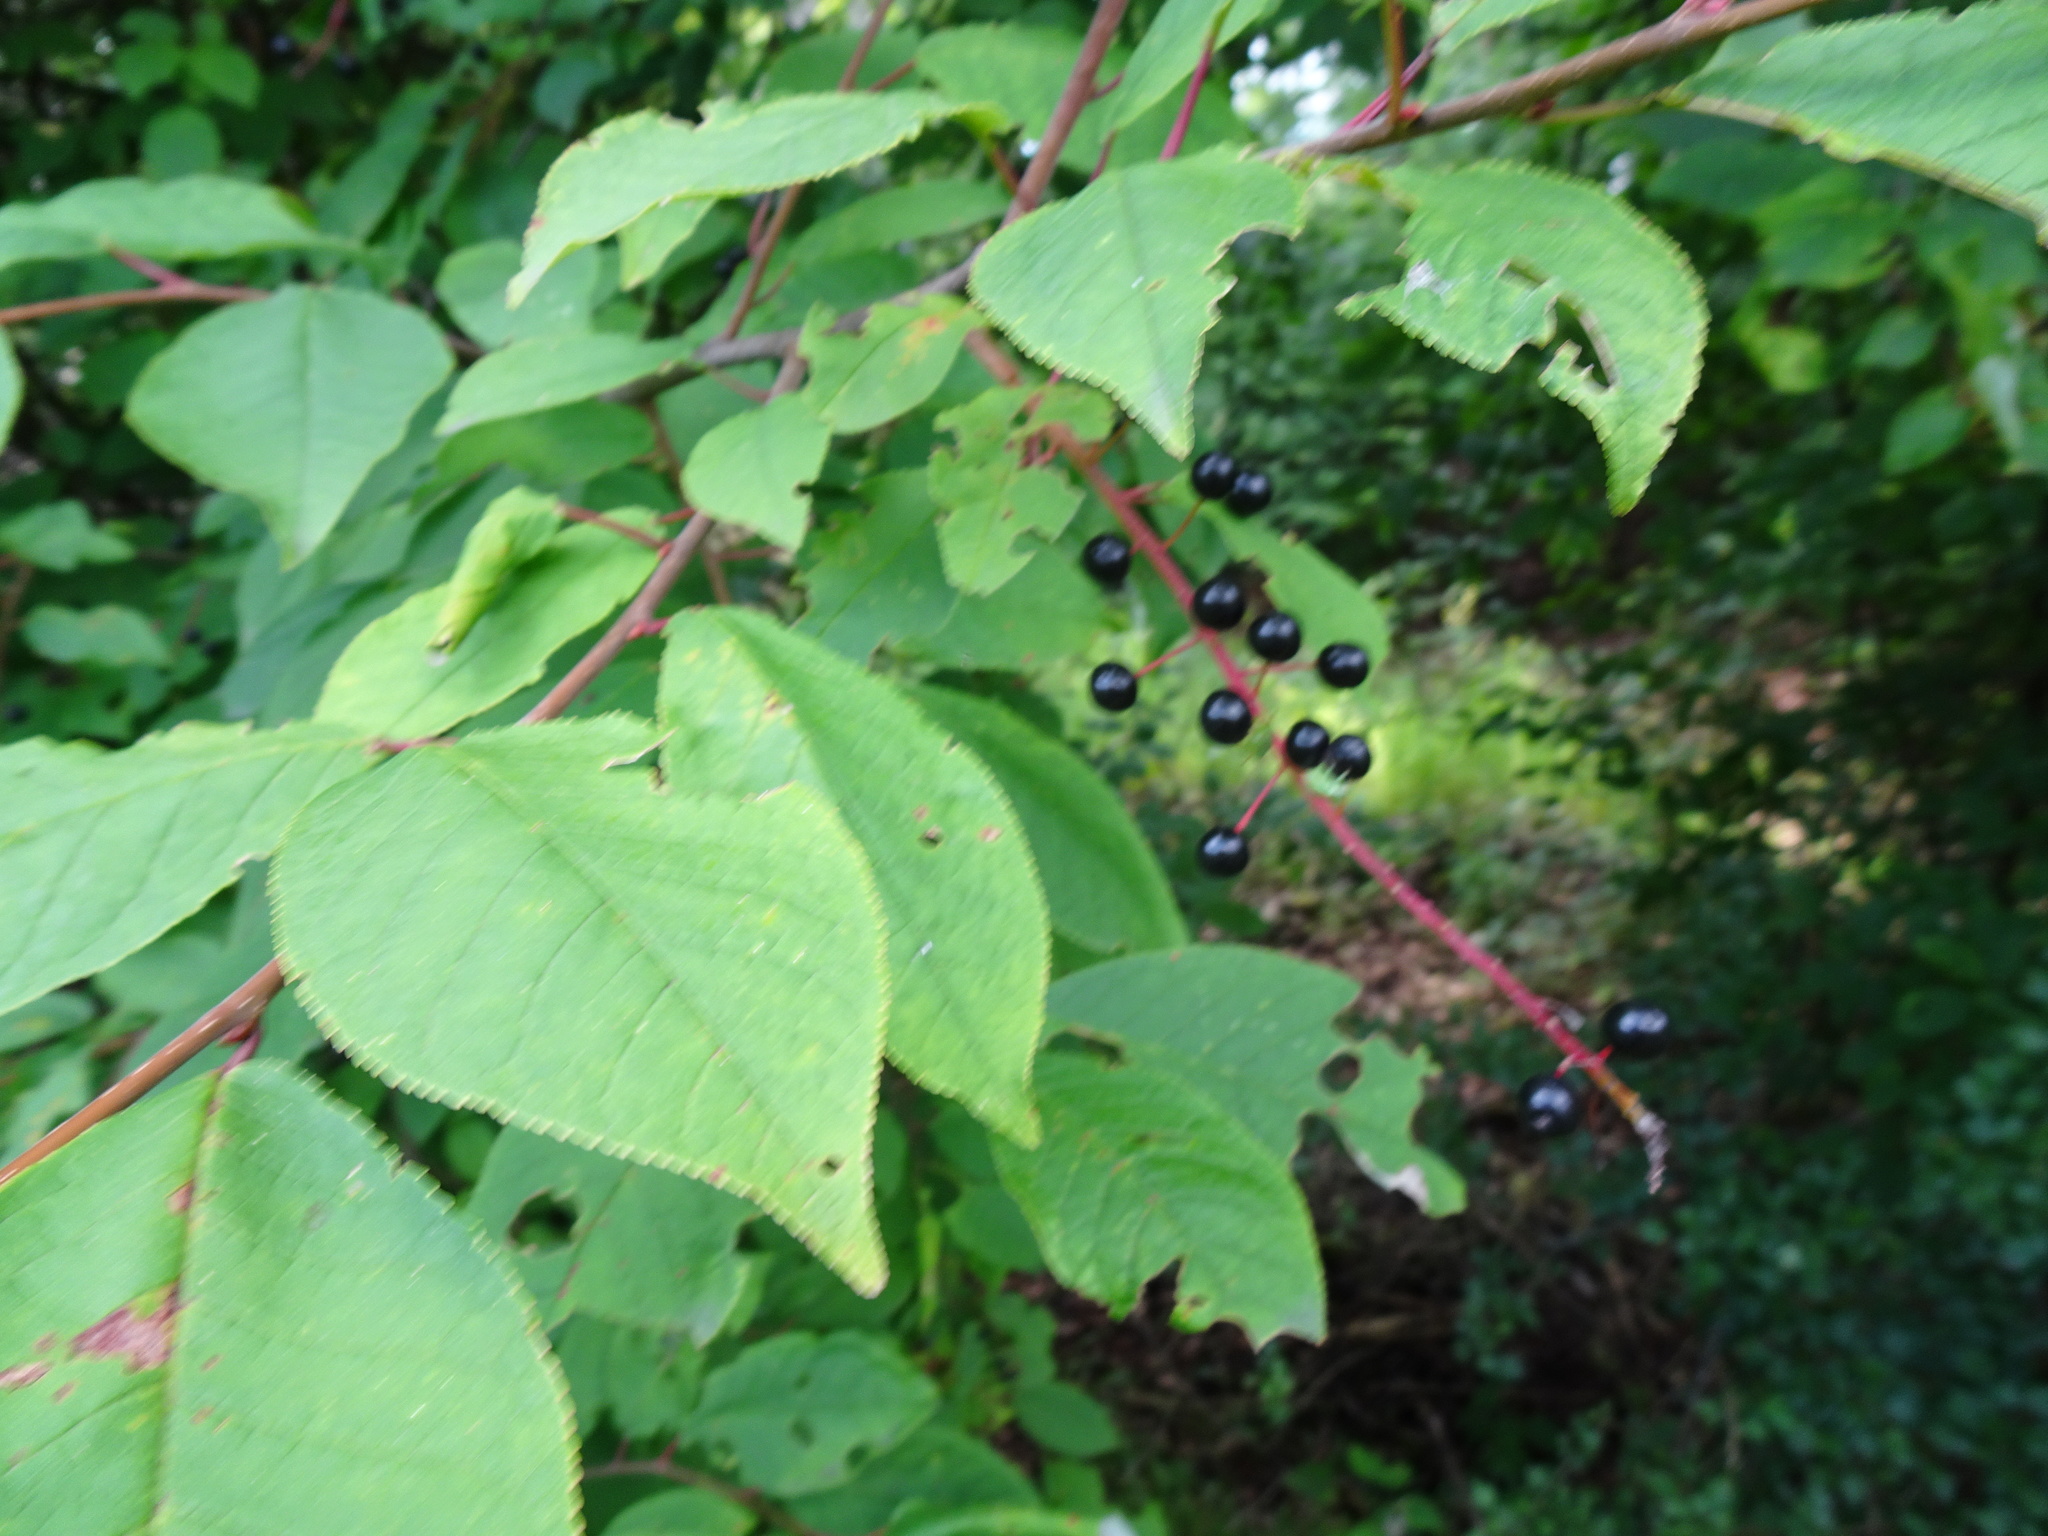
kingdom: Plantae
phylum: Tracheophyta
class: Magnoliopsida
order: Rosales
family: Rosaceae
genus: Prunus
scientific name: Prunus padus
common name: Bird cherry
